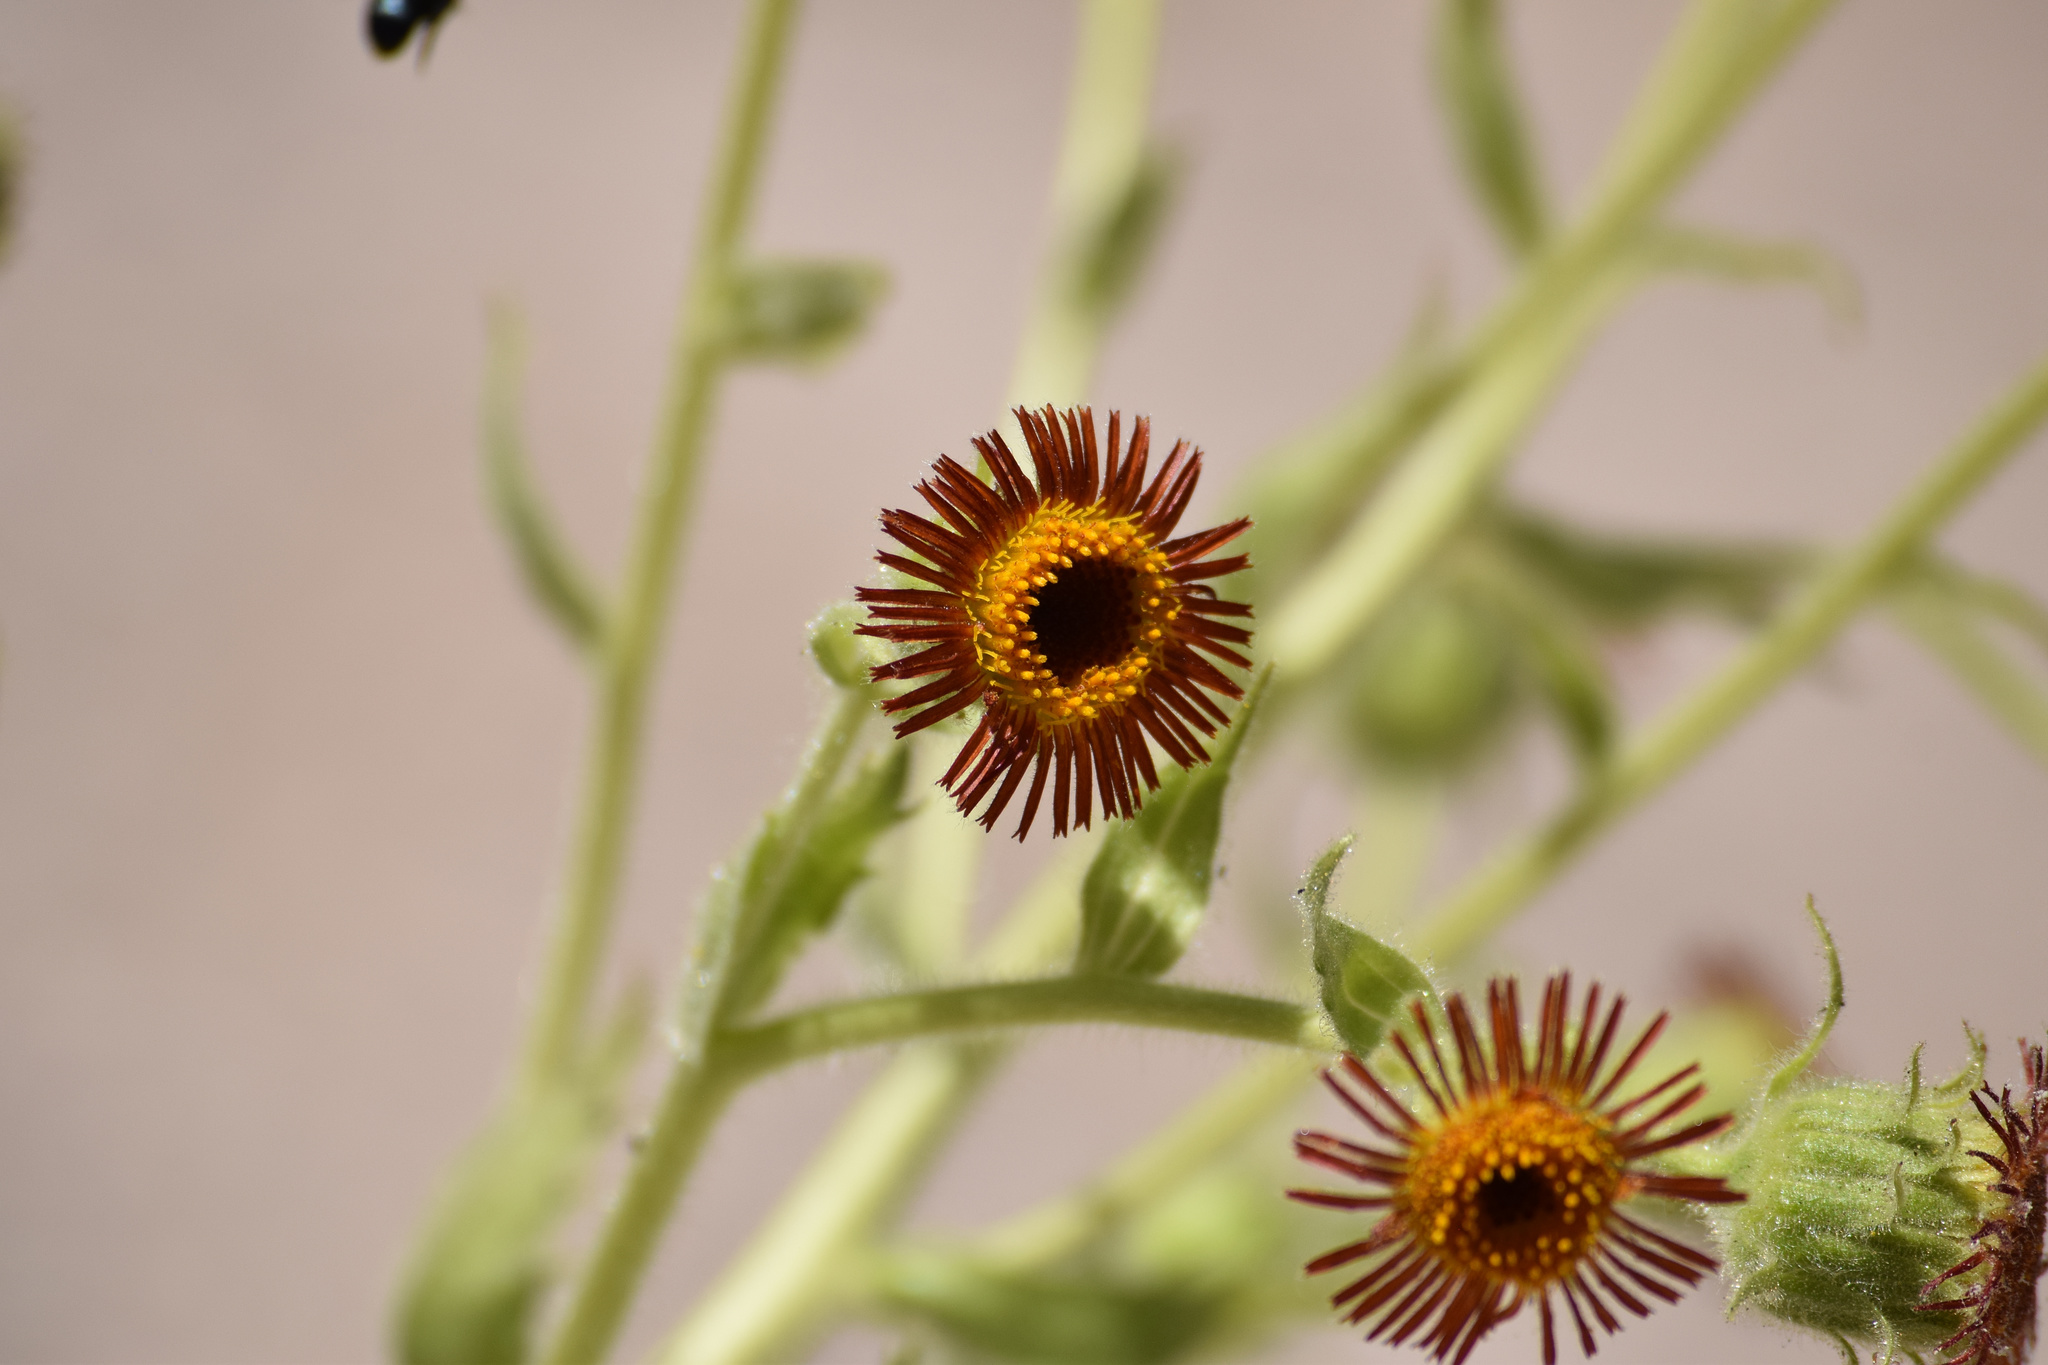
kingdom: Plantae
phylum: Tracheophyta
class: Magnoliopsida
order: Asterales
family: Asteraceae
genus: Hulsea
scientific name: Hulsea heterochroma
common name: Redray alpinegold
